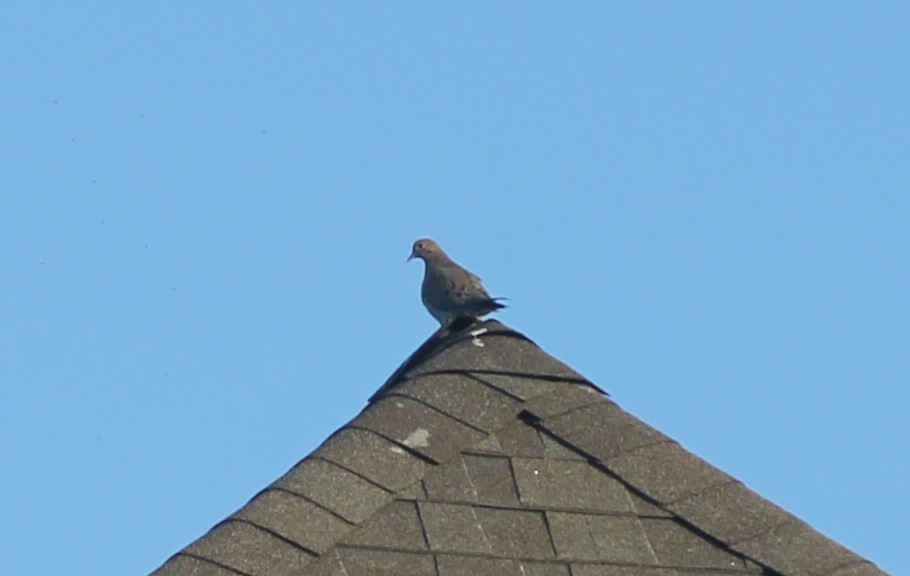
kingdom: Animalia
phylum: Chordata
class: Aves
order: Columbiformes
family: Columbidae
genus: Zenaida
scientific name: Zenaida macroura
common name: Mourning dove
